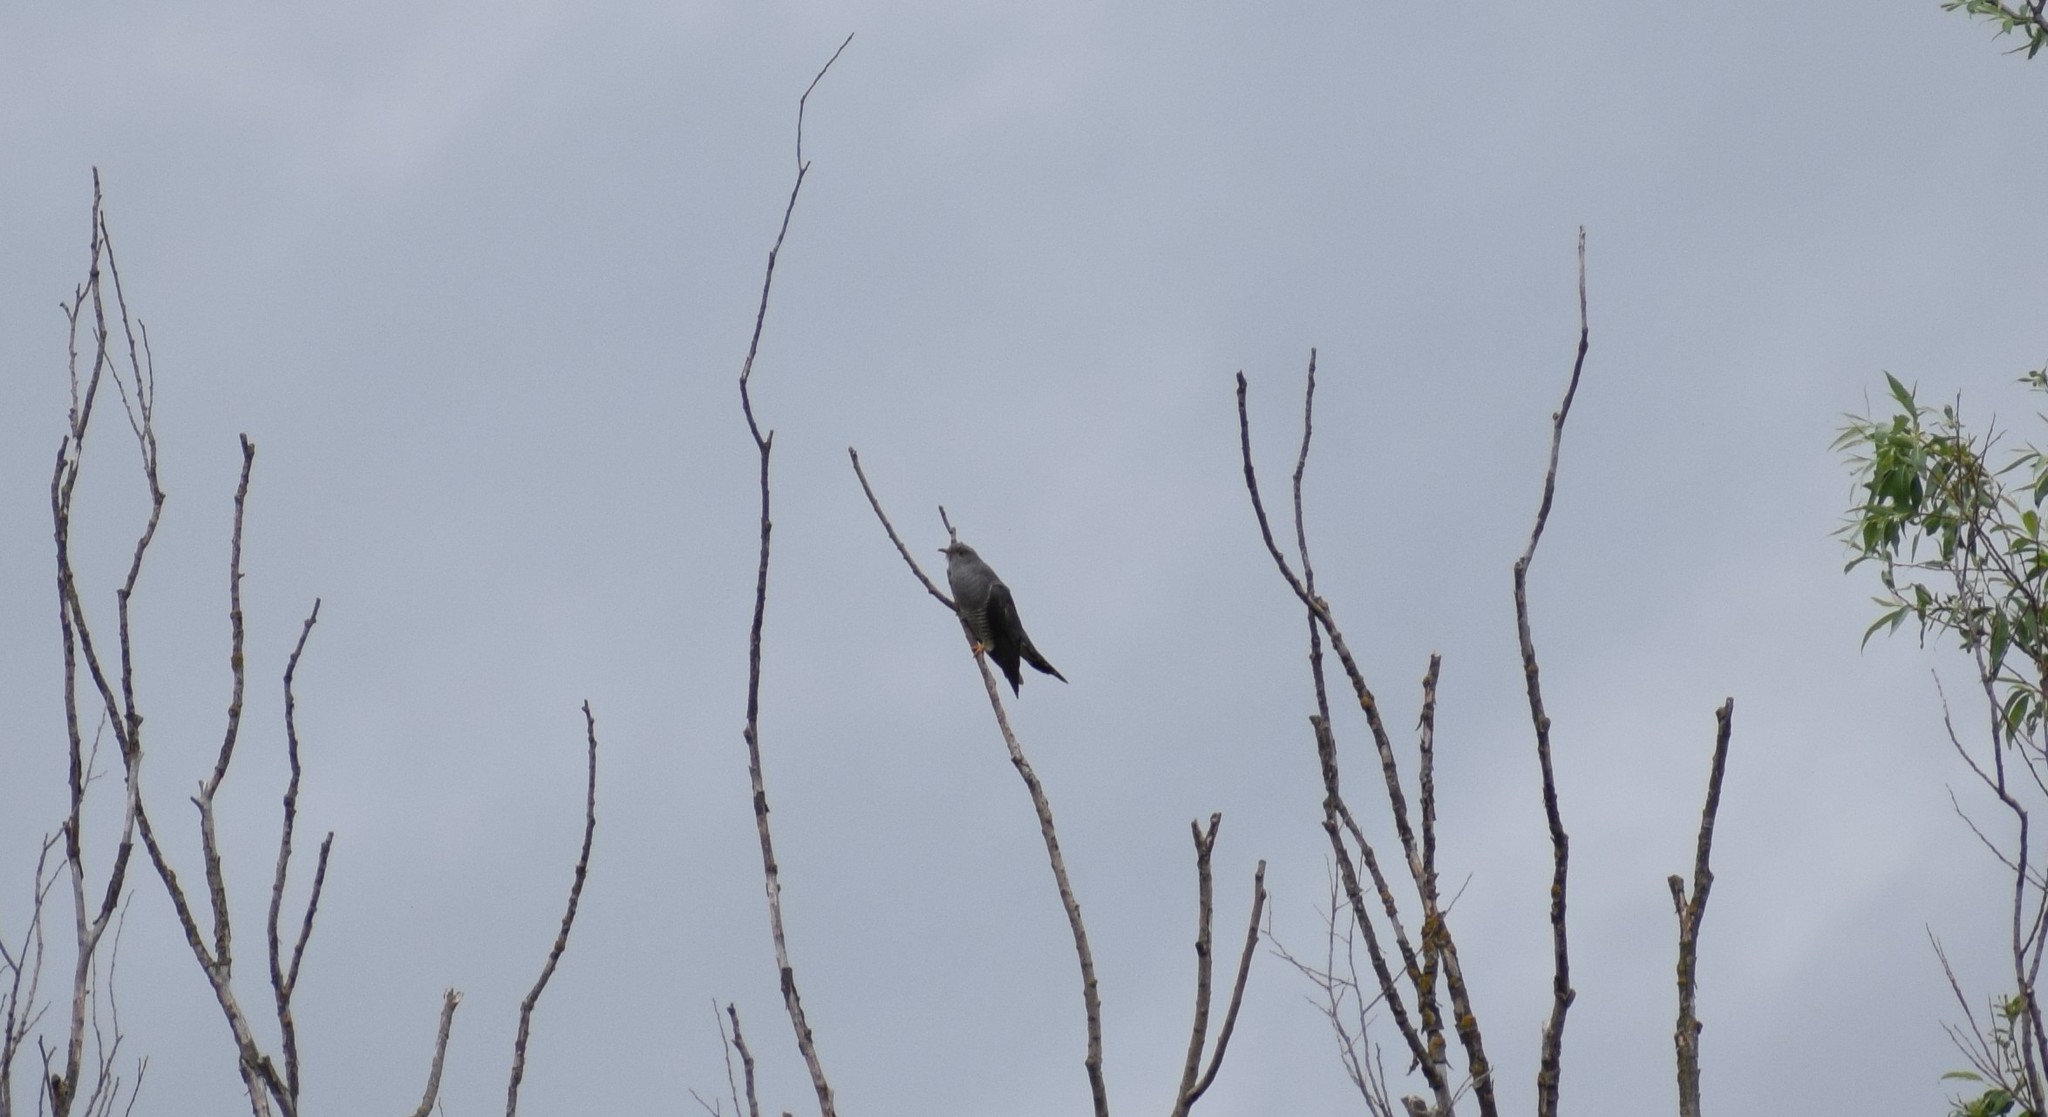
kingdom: Animalia
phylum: Chordata
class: Aves
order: Cuculiformes
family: Cuculidae
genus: Cuculus
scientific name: Cuculus canorus
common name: Common cuckoo
